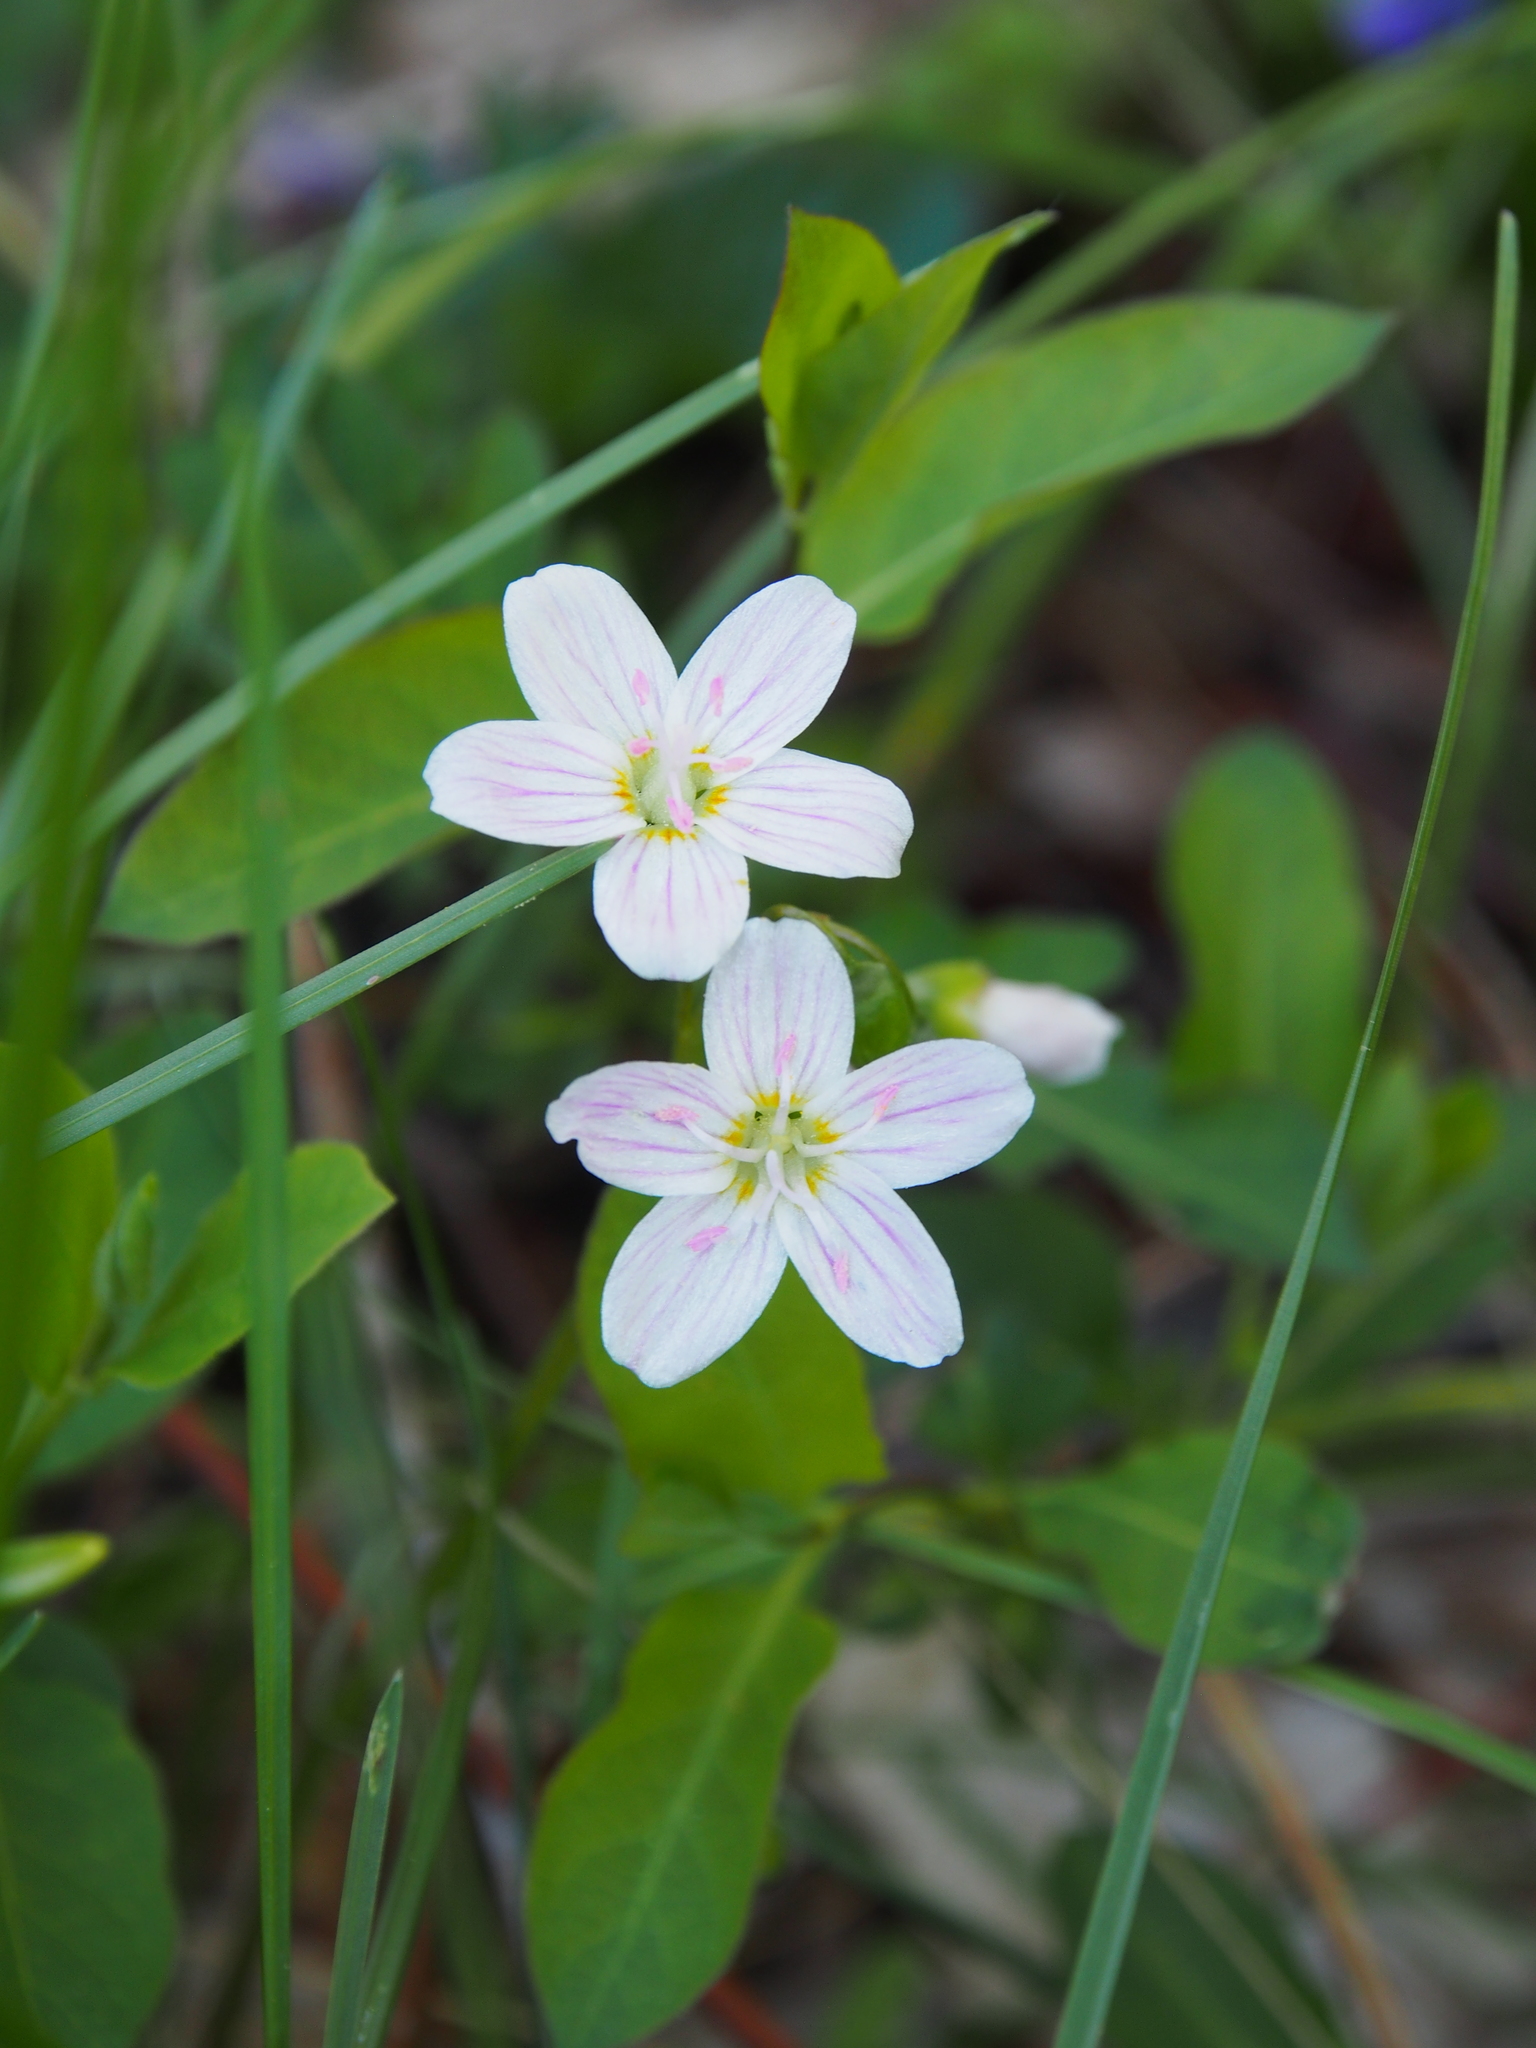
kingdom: Plantae
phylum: Tracheophyta
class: Magnoliopsida
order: Caryophyllales
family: Montiaceae
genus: Claytonia
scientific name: Claytonia virginica
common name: Virginia springbeauty
